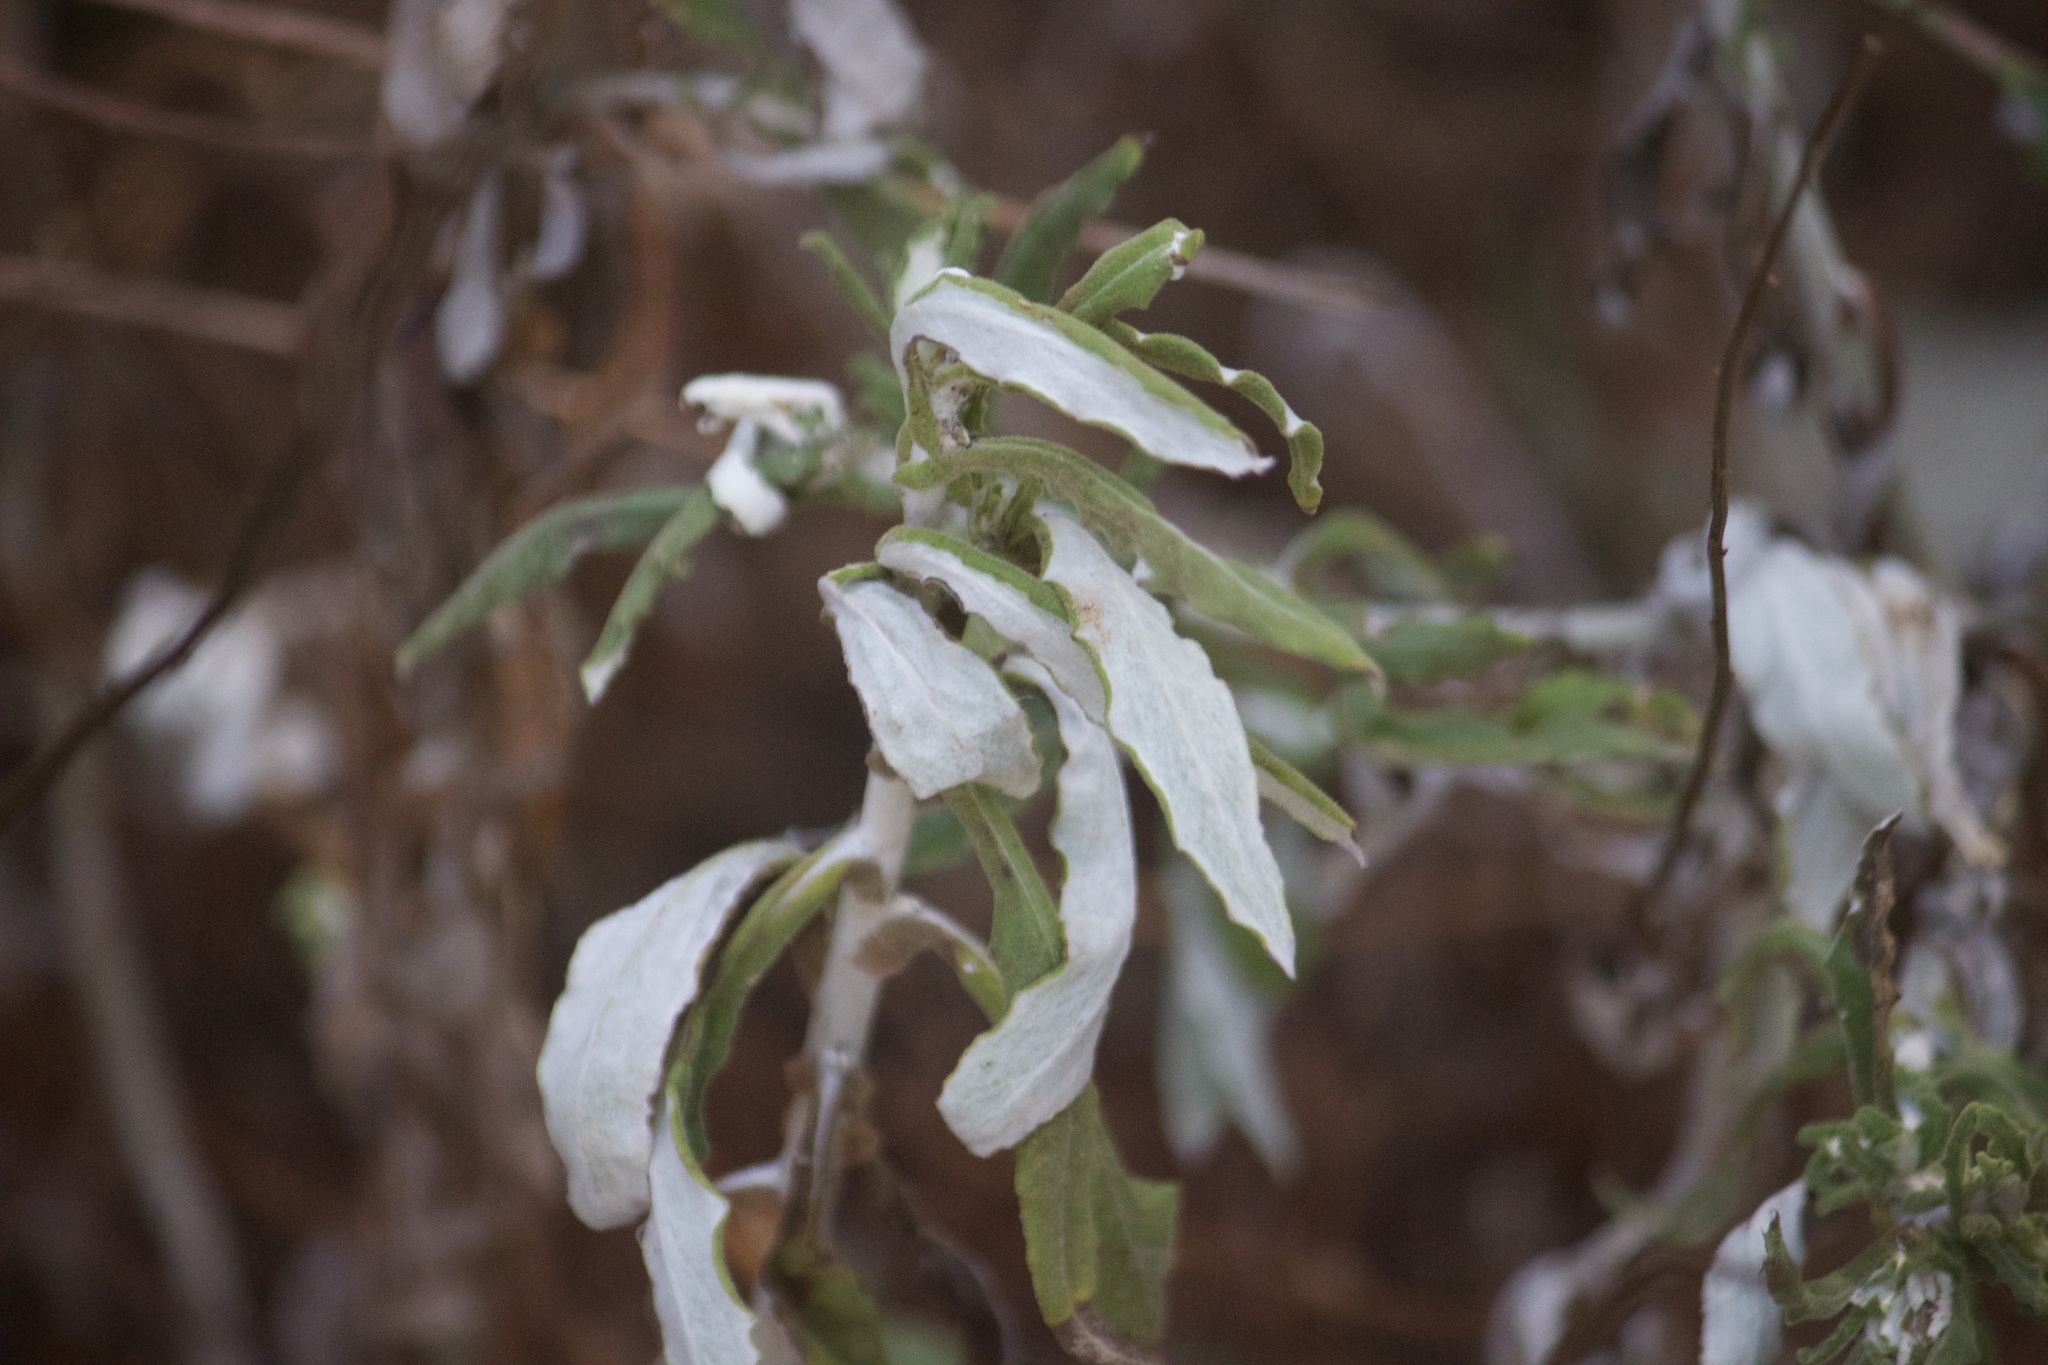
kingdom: Plantae
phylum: Tracheophyta
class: Magnoliopsida
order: Asterales
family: Asteraceae
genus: Pseudognaphalium
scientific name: Pseudognaphalium biolettii
